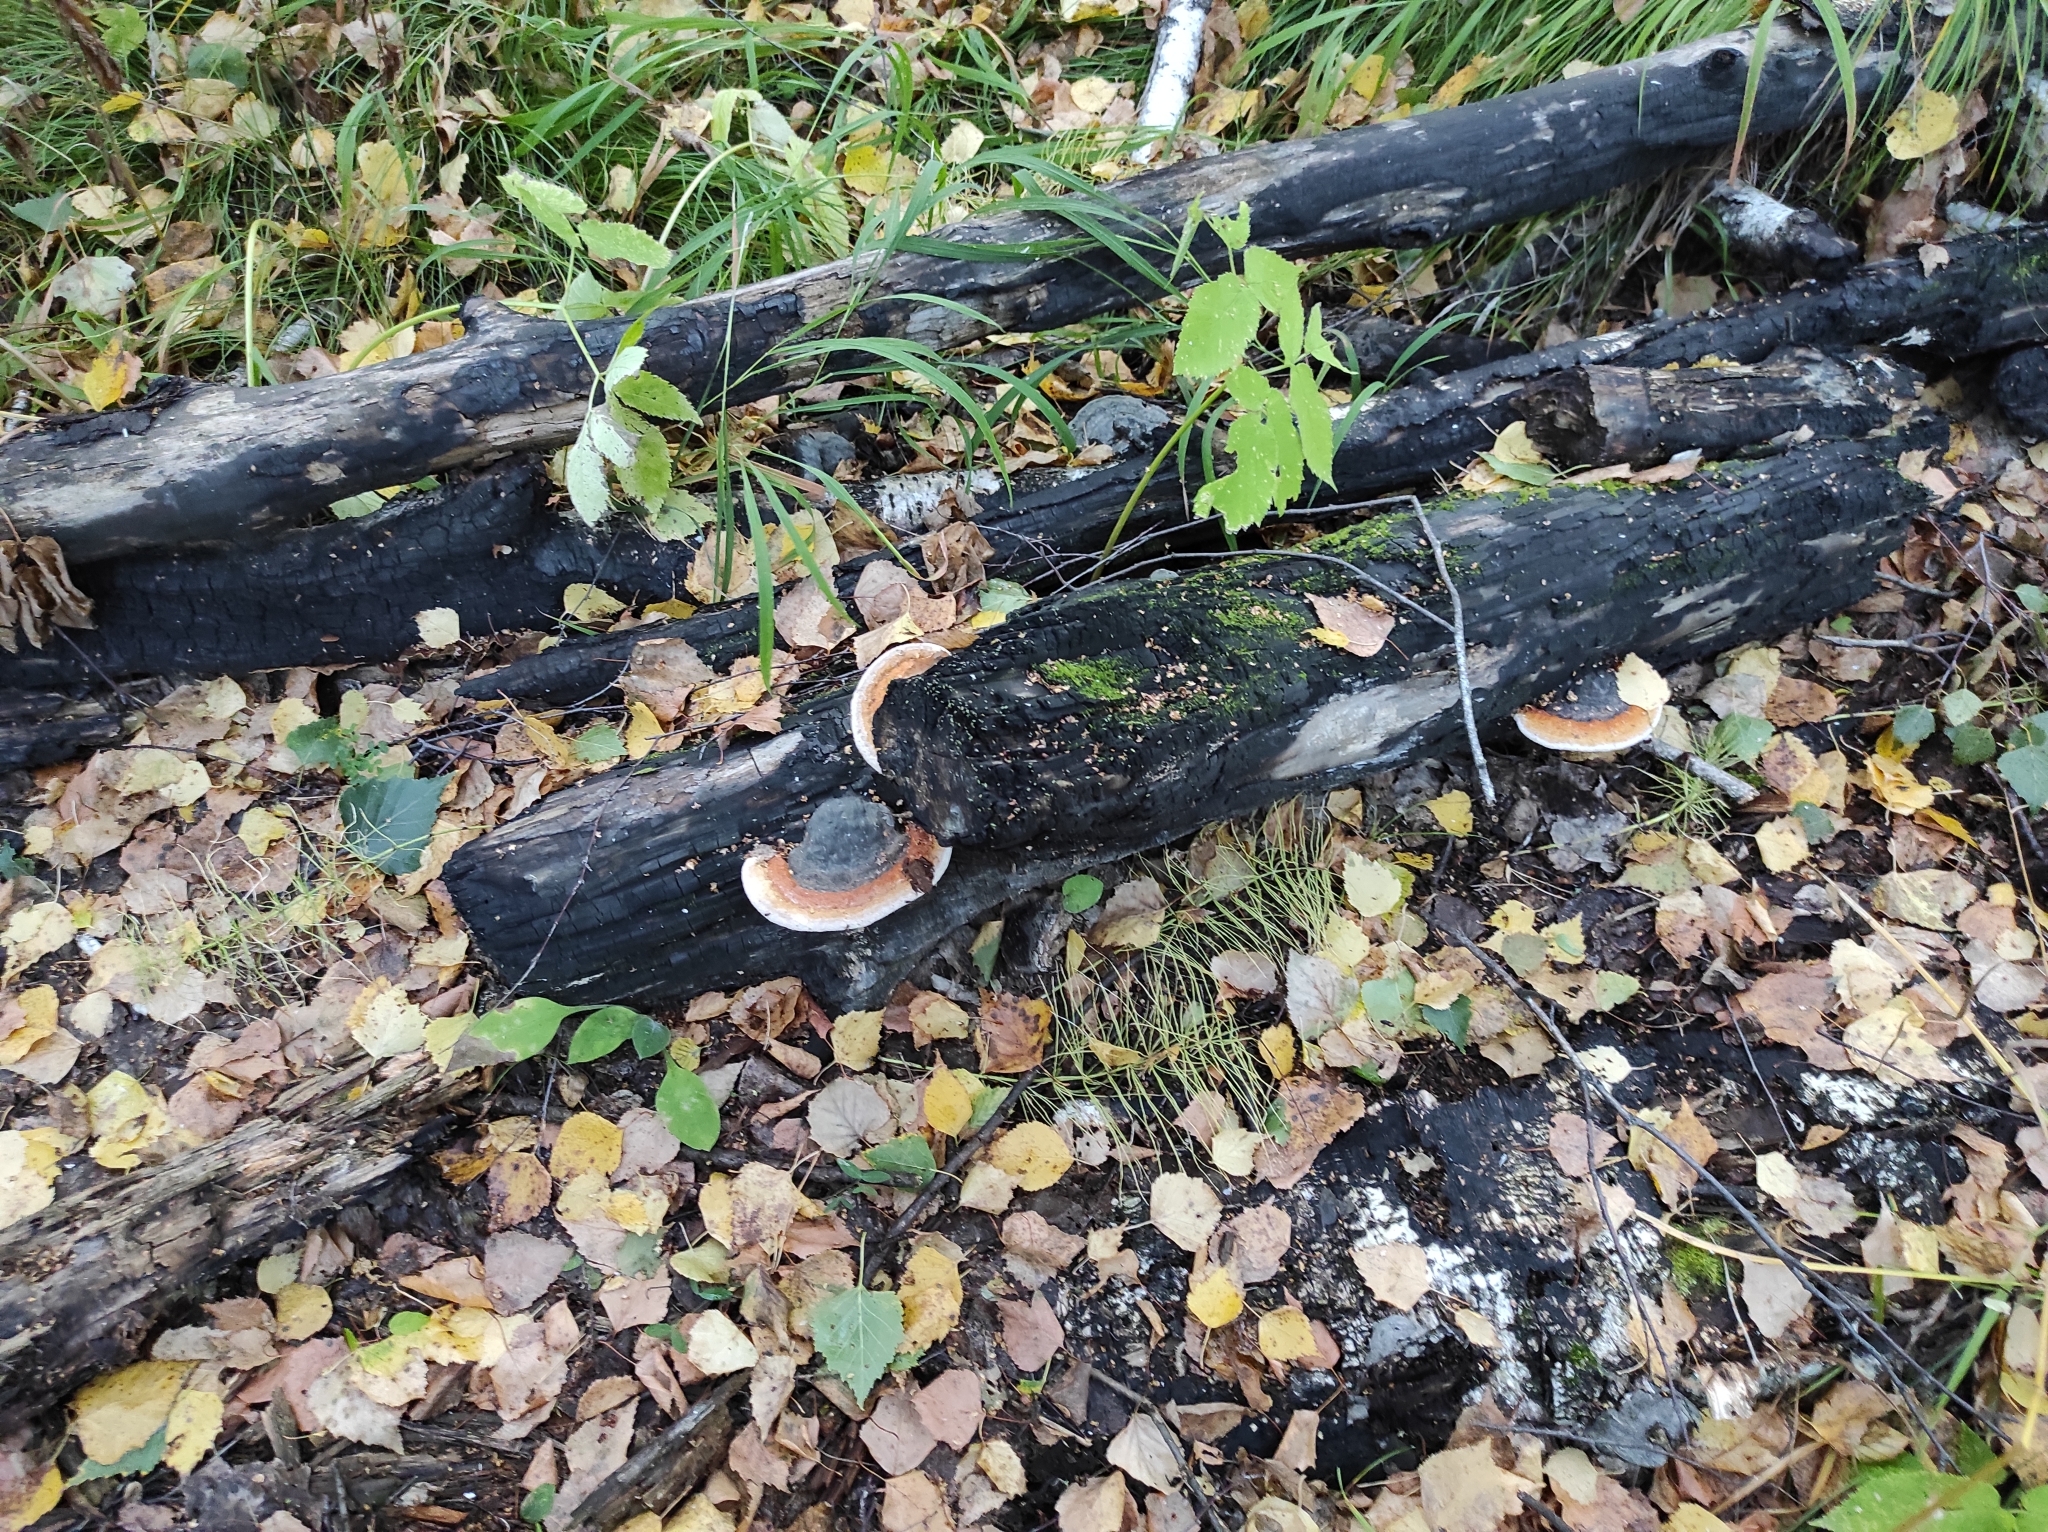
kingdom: Fungi
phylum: Basidiomycota
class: Agaricomycetes
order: Polyporales
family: Fomitopsidaceae
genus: Fomitopsis
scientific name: Fomitopsis pinicola
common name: Red-belted bracket
